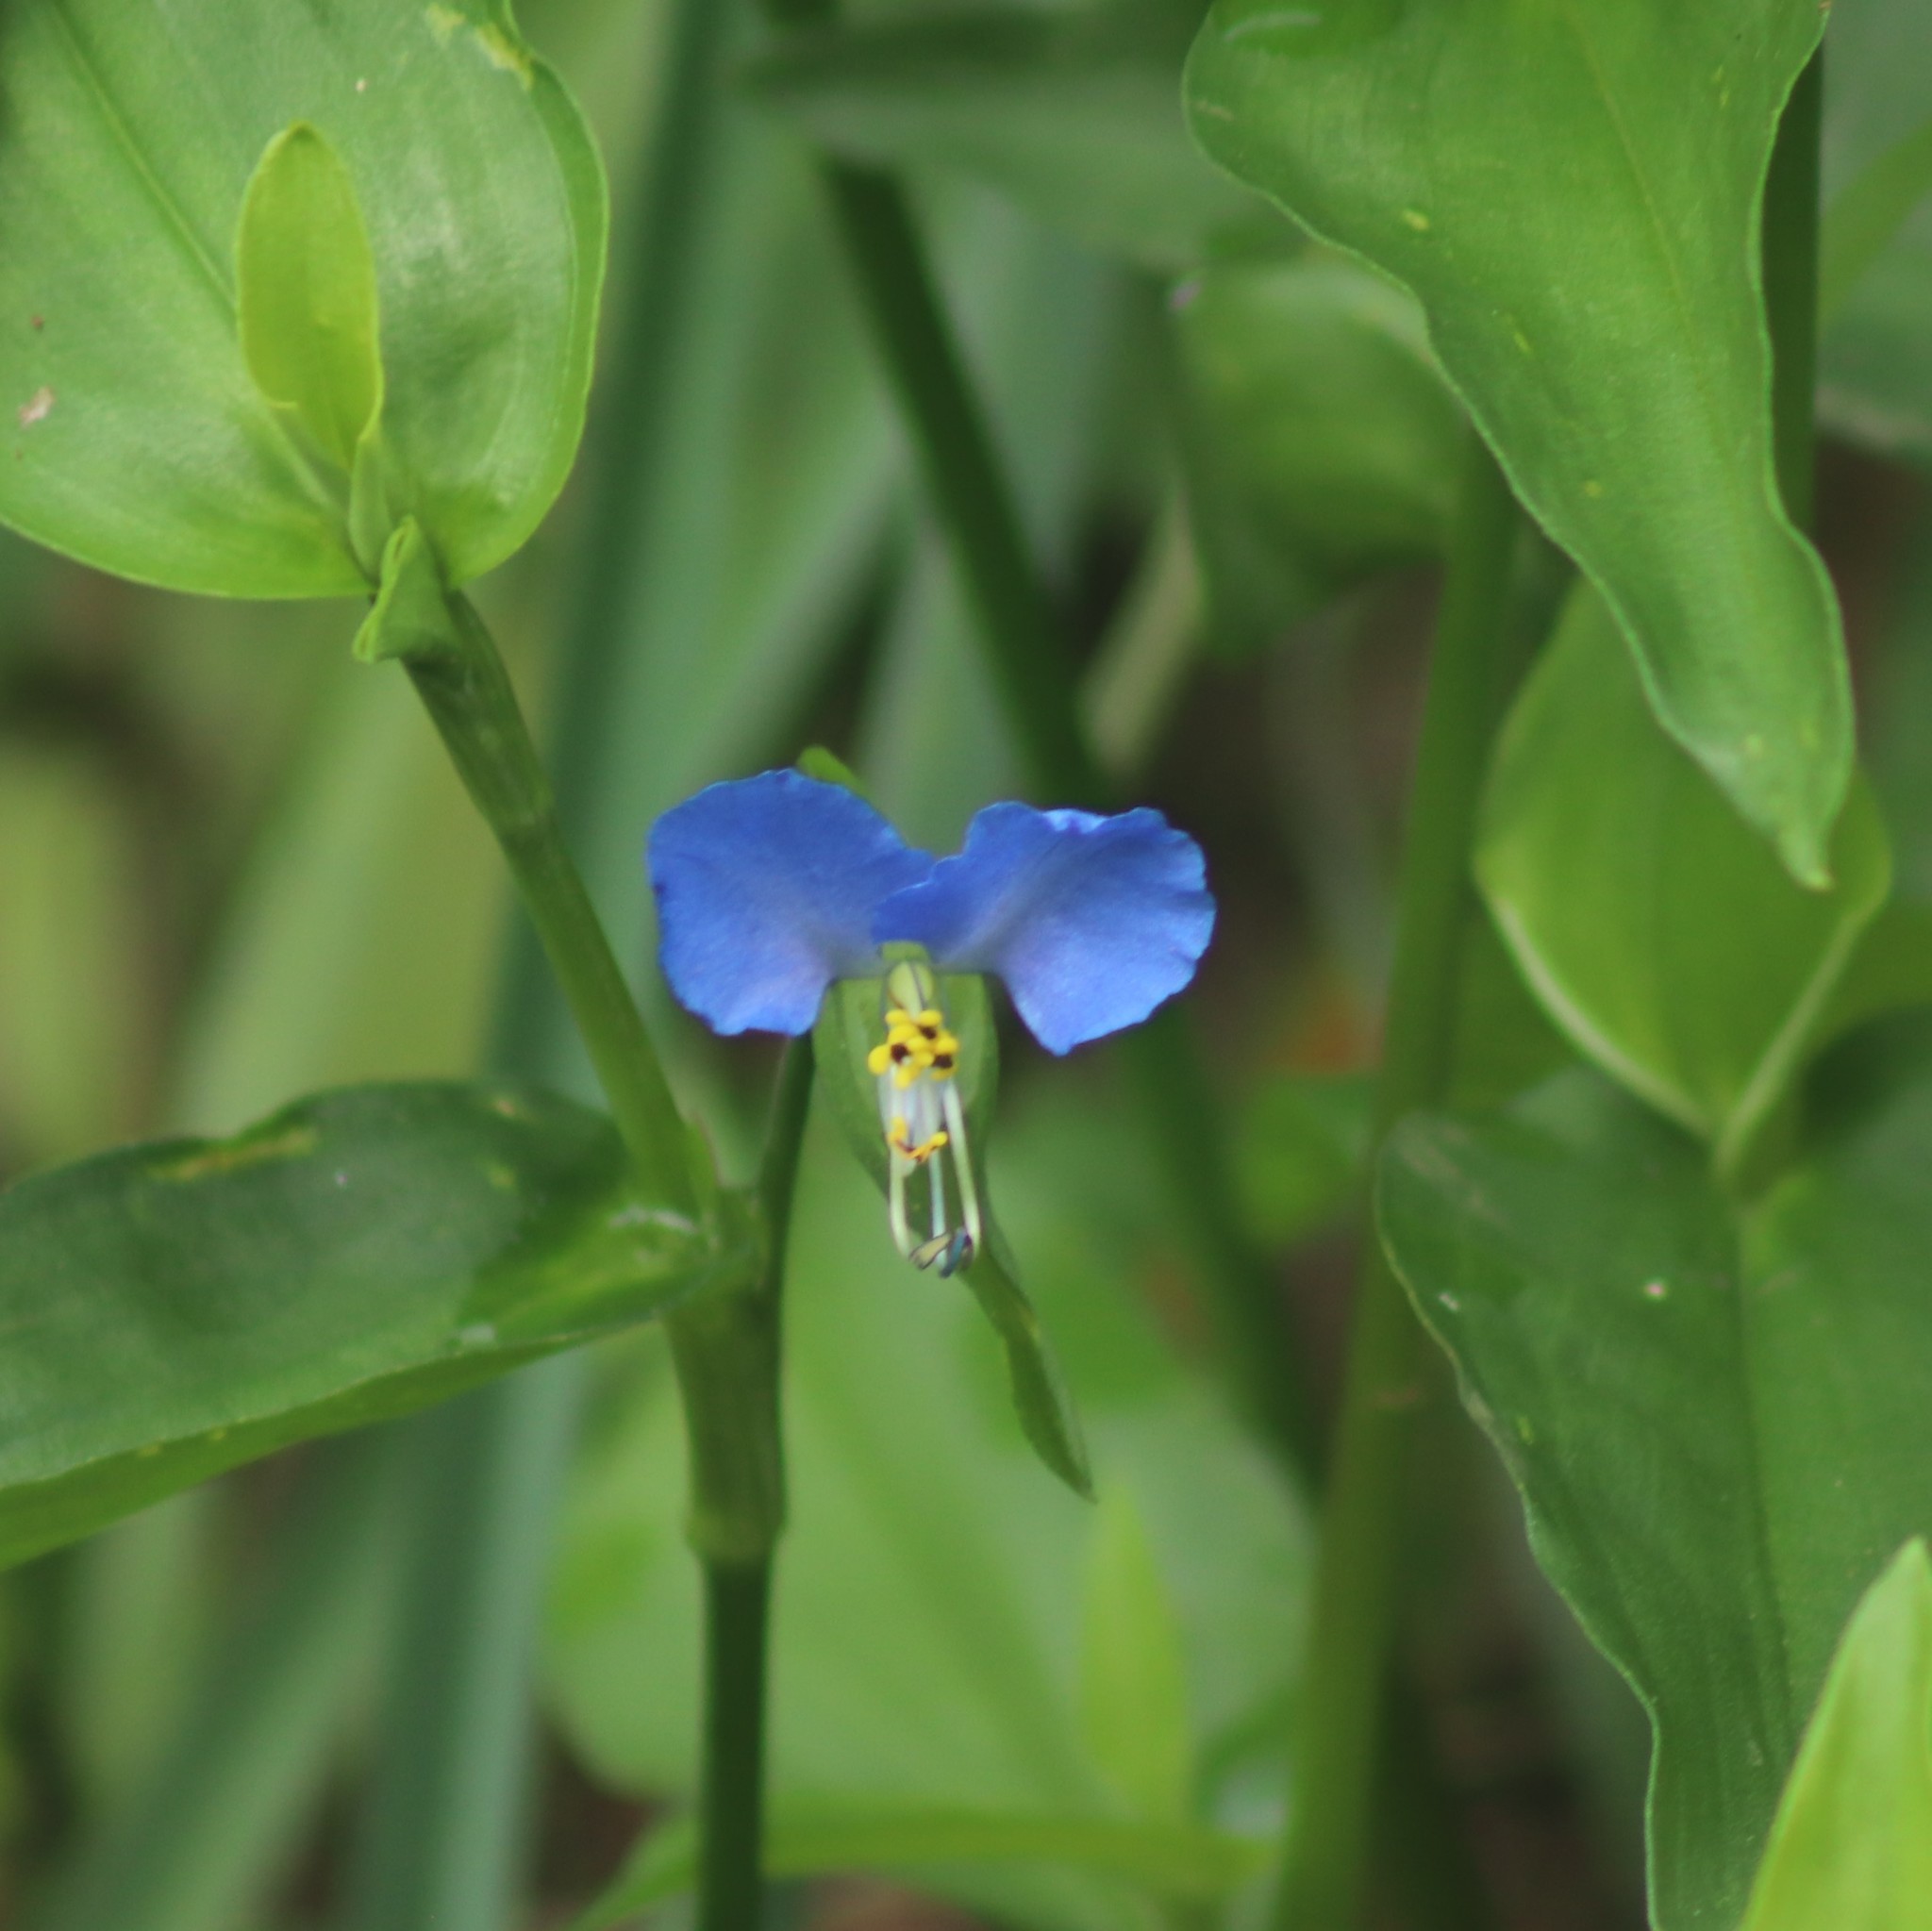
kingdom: Plantae
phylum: Tracheophyta
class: Liliopsida
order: Commelinales
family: Commelinaceae
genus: Commelina
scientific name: Commelina communis
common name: Asiatic dayflower
